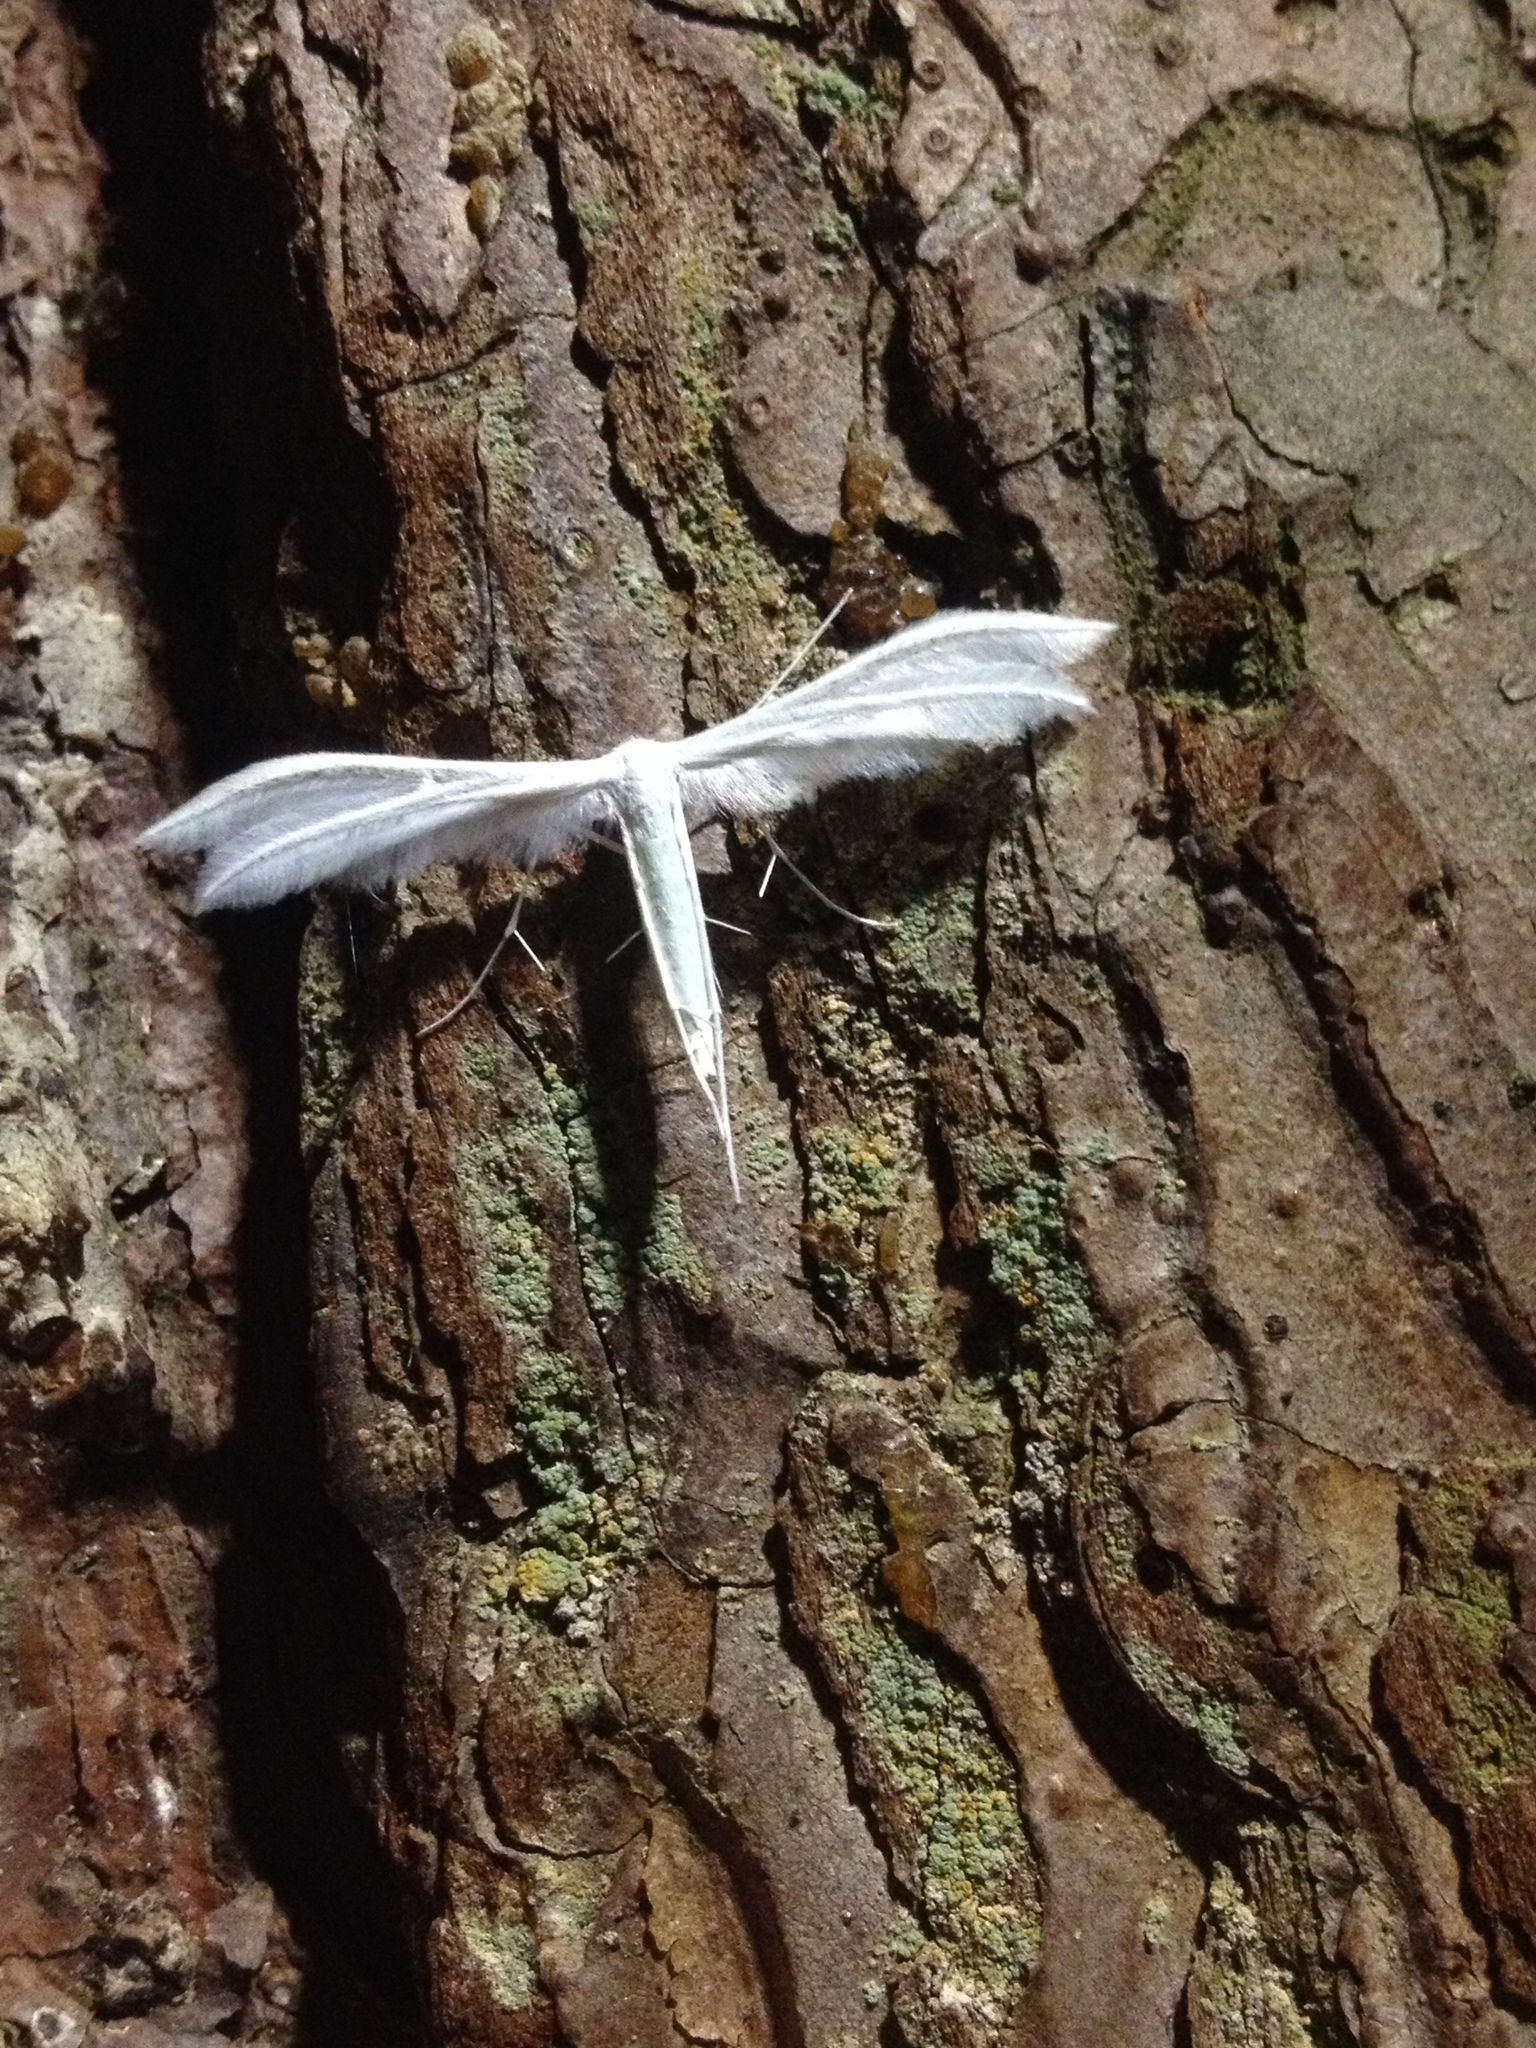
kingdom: Animalia
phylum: Arthropoda
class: Insecta
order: Lepidoptera
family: Pterophoridae
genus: Pterophorus
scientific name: Pterophorus pentadactyla
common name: White plume moth
